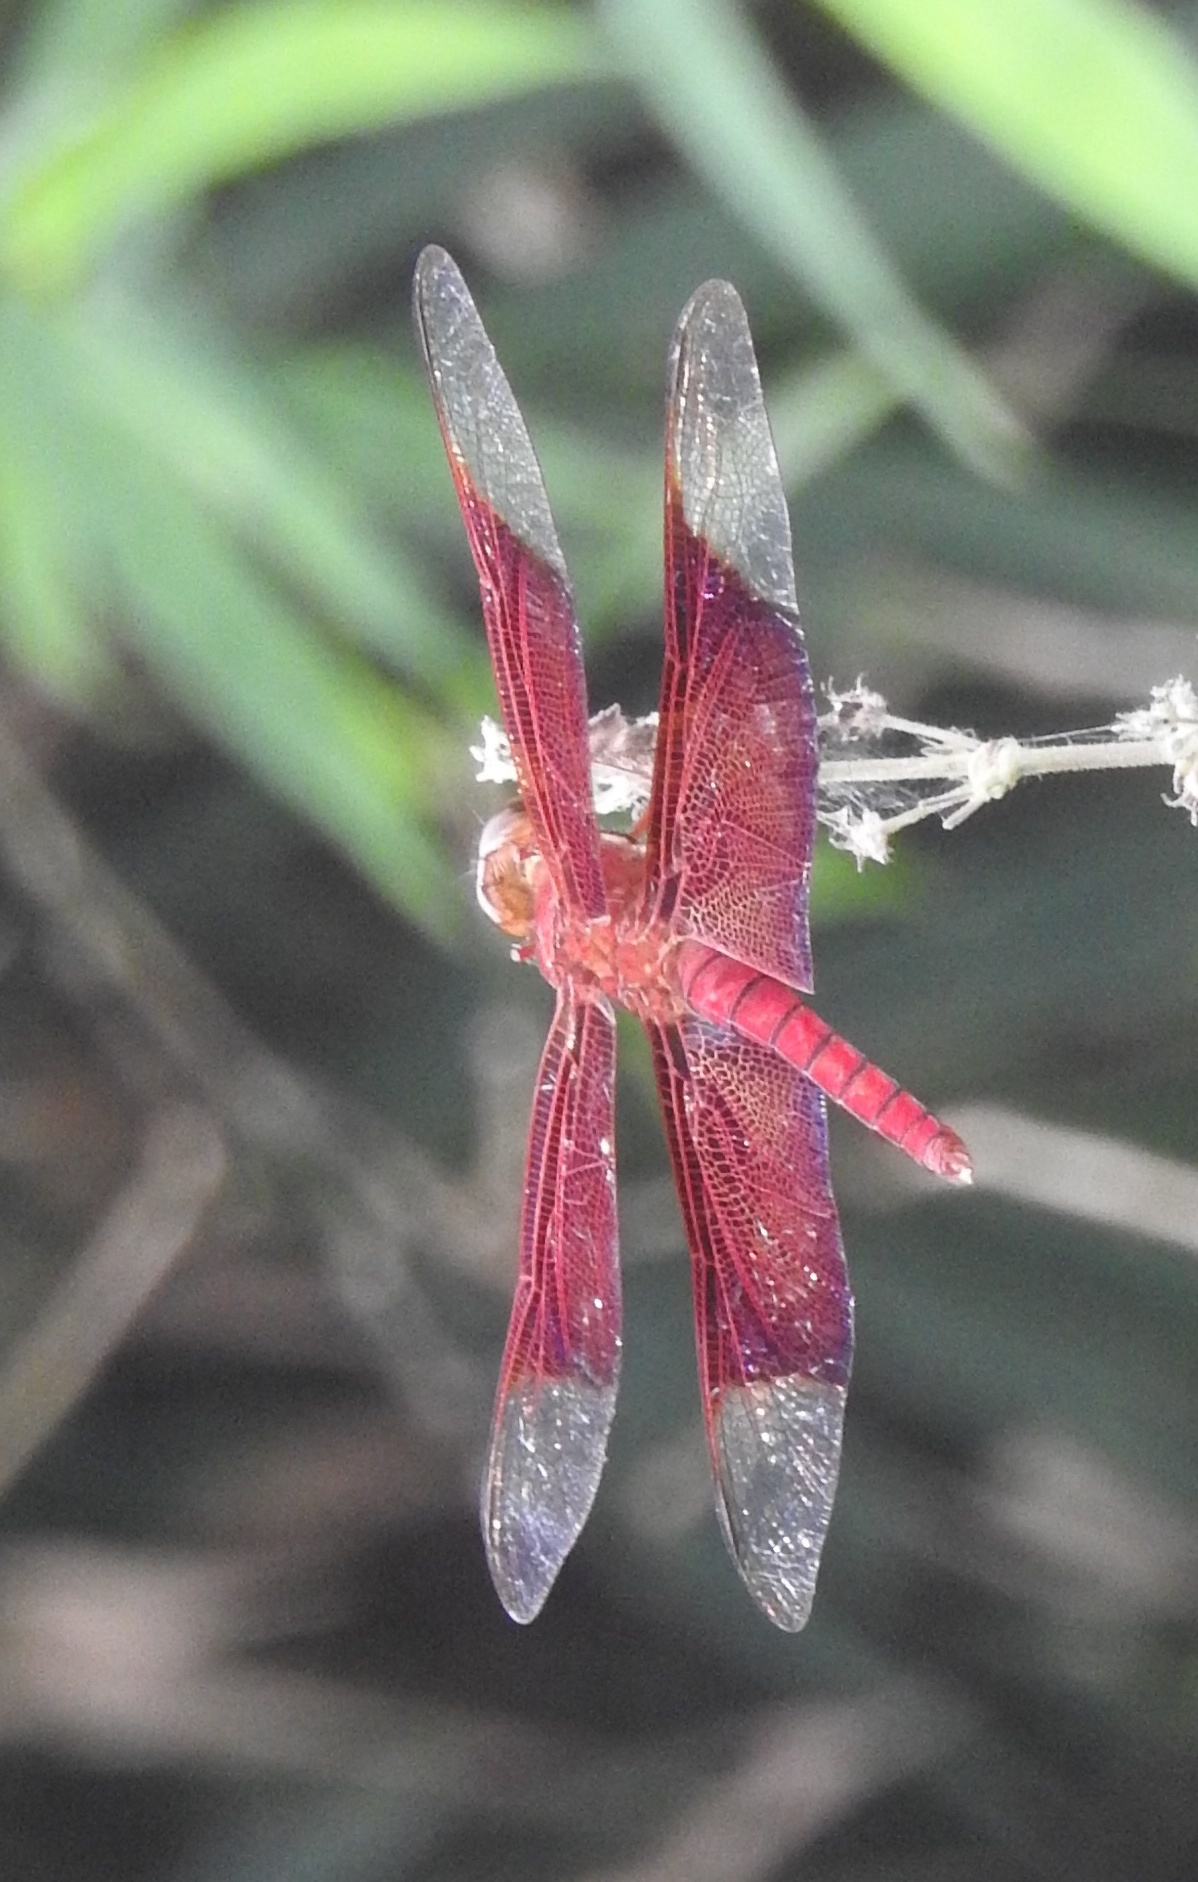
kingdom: Animalia
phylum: Arthropoda
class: Insecta
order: Odonata
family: Libellulidae
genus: Camacinia
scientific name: Camacinia gigantea
